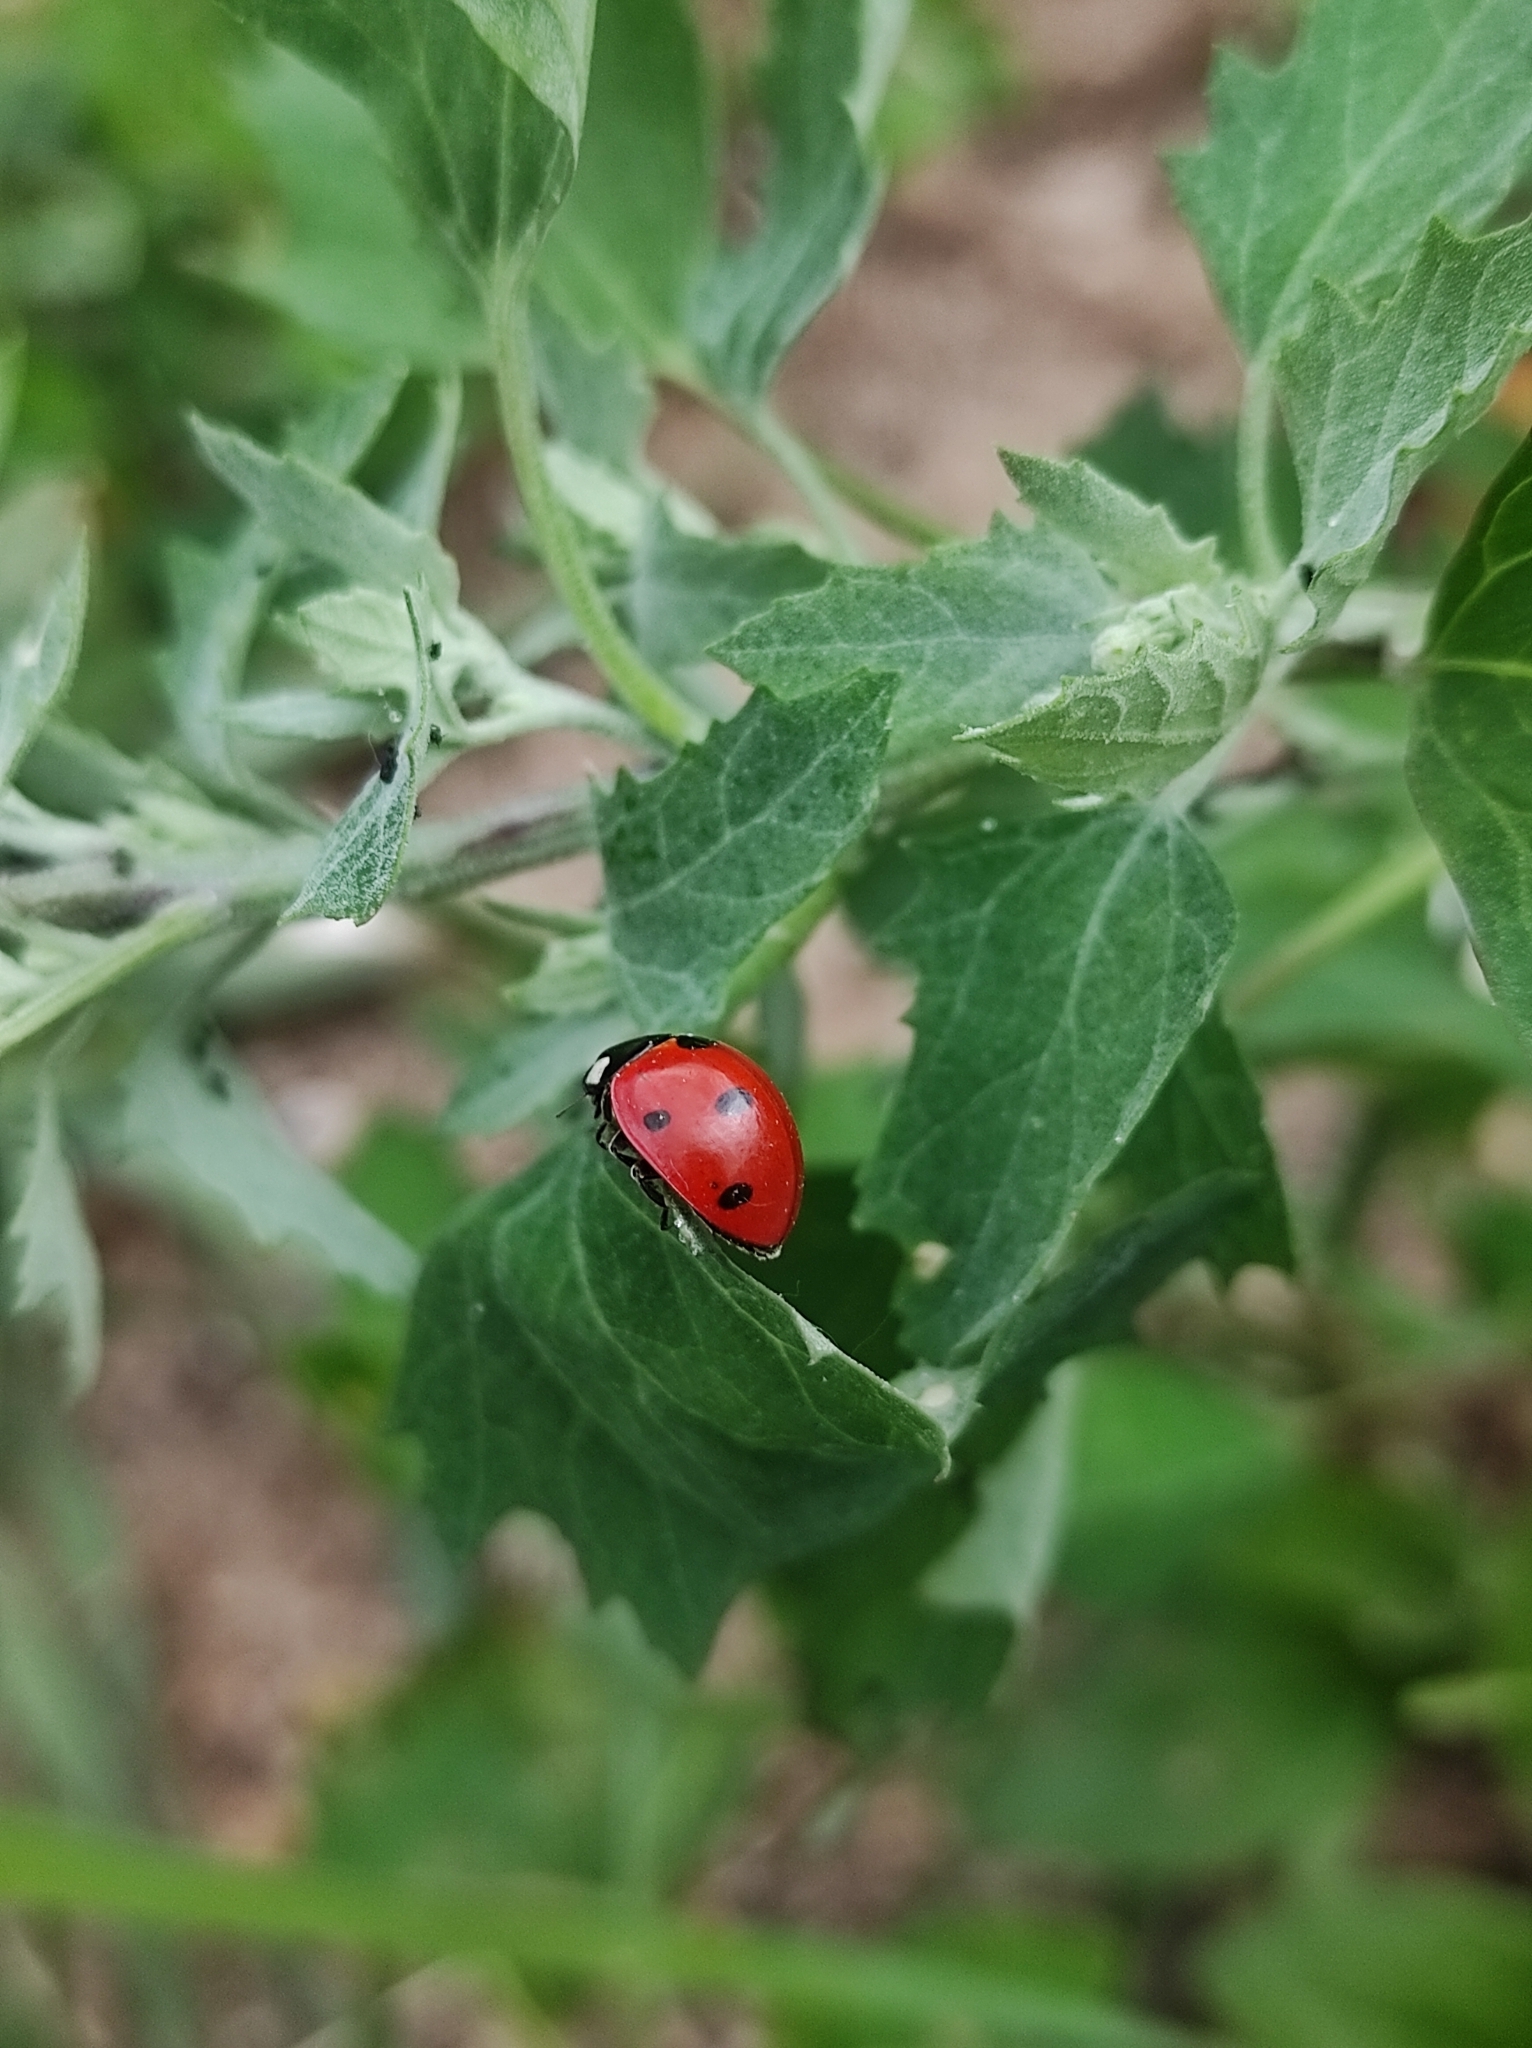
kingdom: Animalia
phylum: Arthropoda
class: Insecta
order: Coleoptera
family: Coccinellidae
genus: Coccinella
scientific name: Coccinella septempunctata
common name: Sevenspotted lady beetle
